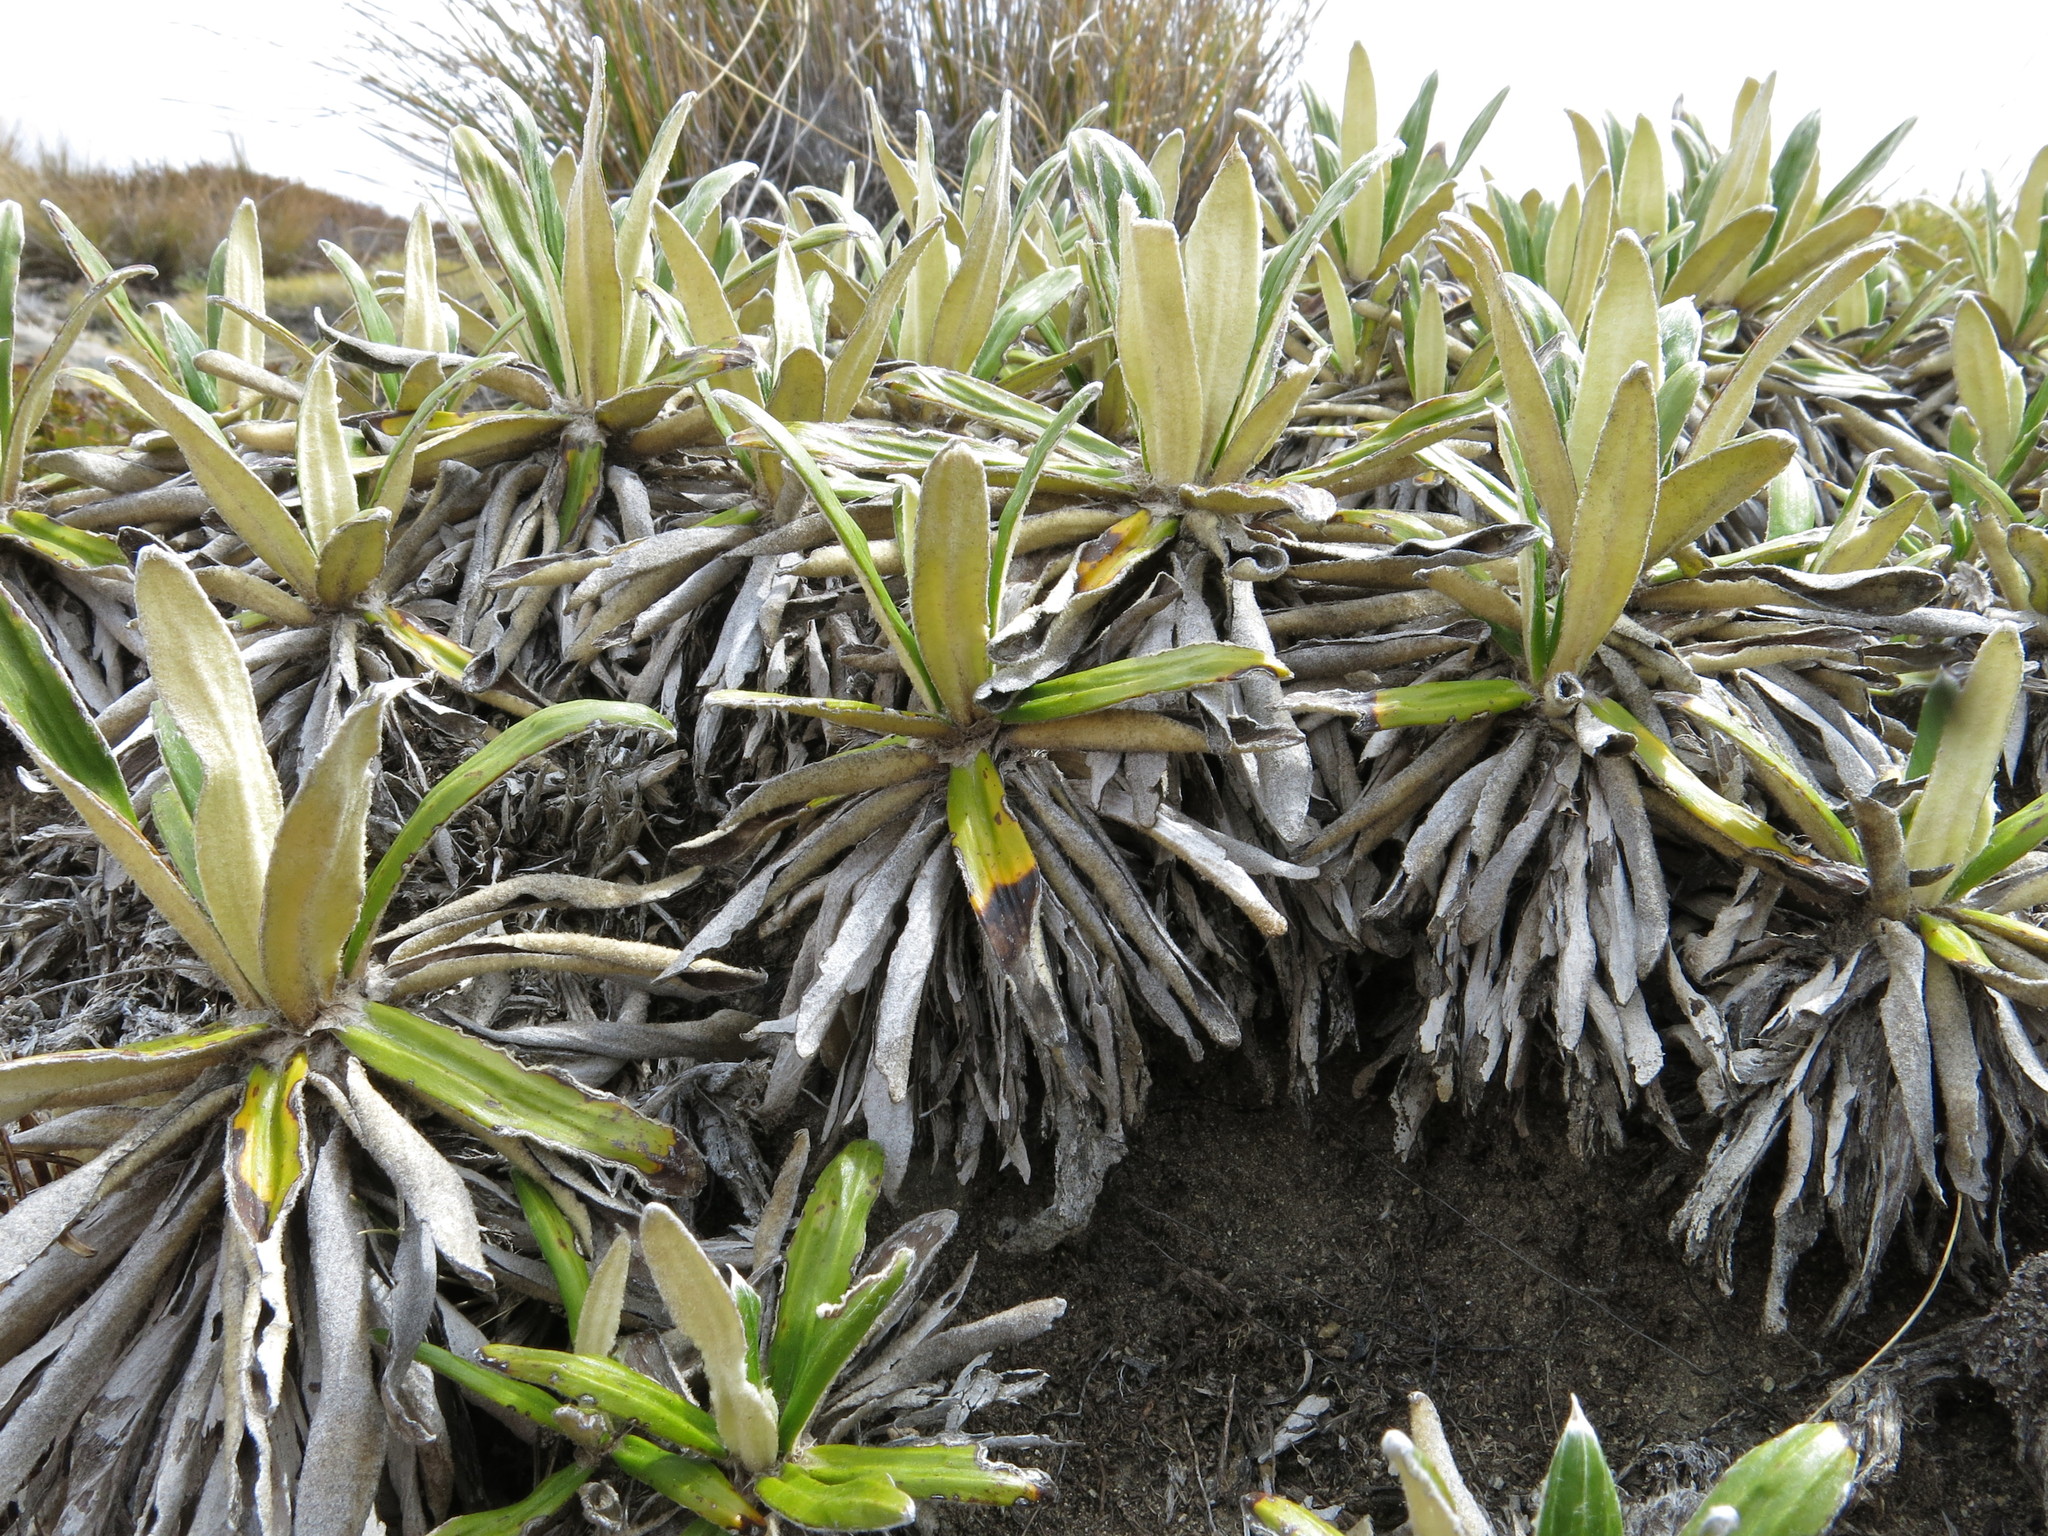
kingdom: Plantae
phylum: Tracheophyta
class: Magnoliopsida
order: Asterales
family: Asteraceae
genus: Celmisia
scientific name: Celmisia spectabilis
